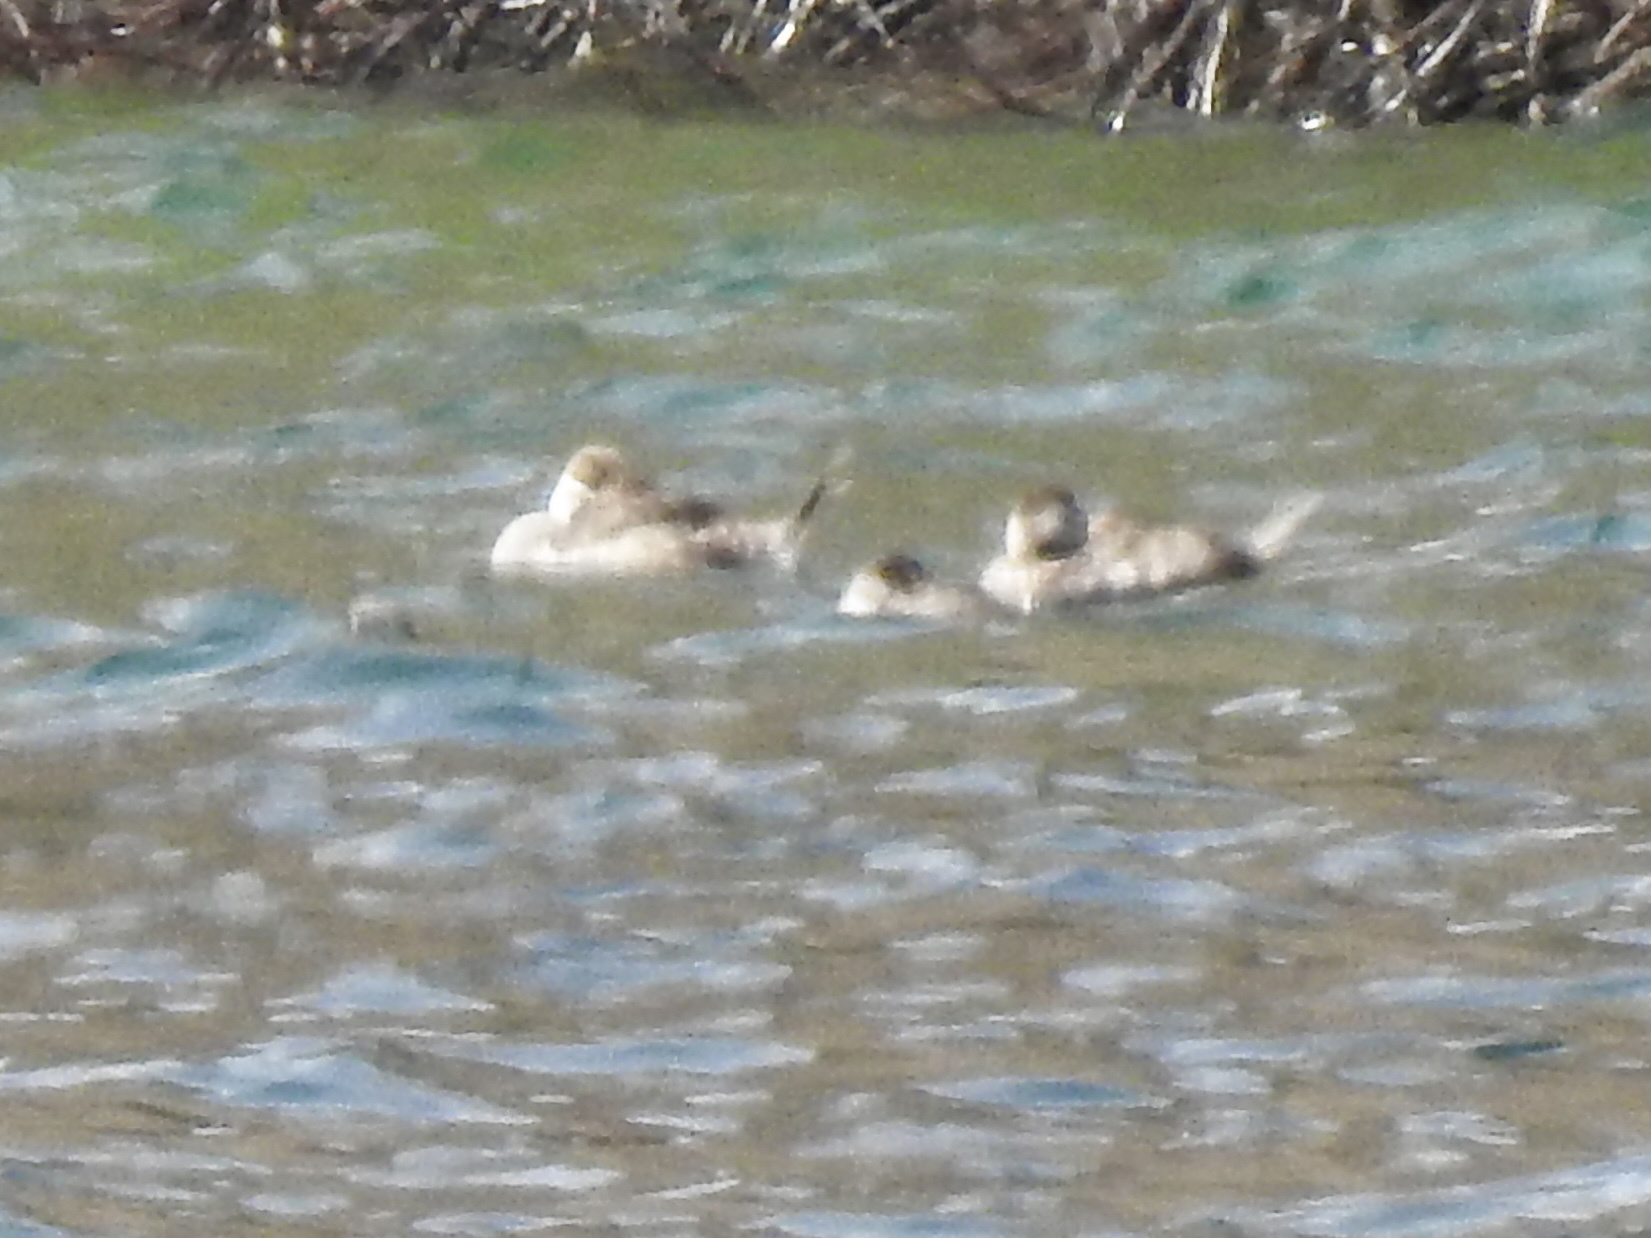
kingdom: Animalia
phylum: Chordata
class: Aves
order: Anseriformes
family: Anatidae
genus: Oxyura
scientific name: Oxyura jamaicensis
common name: Ruddy duck
